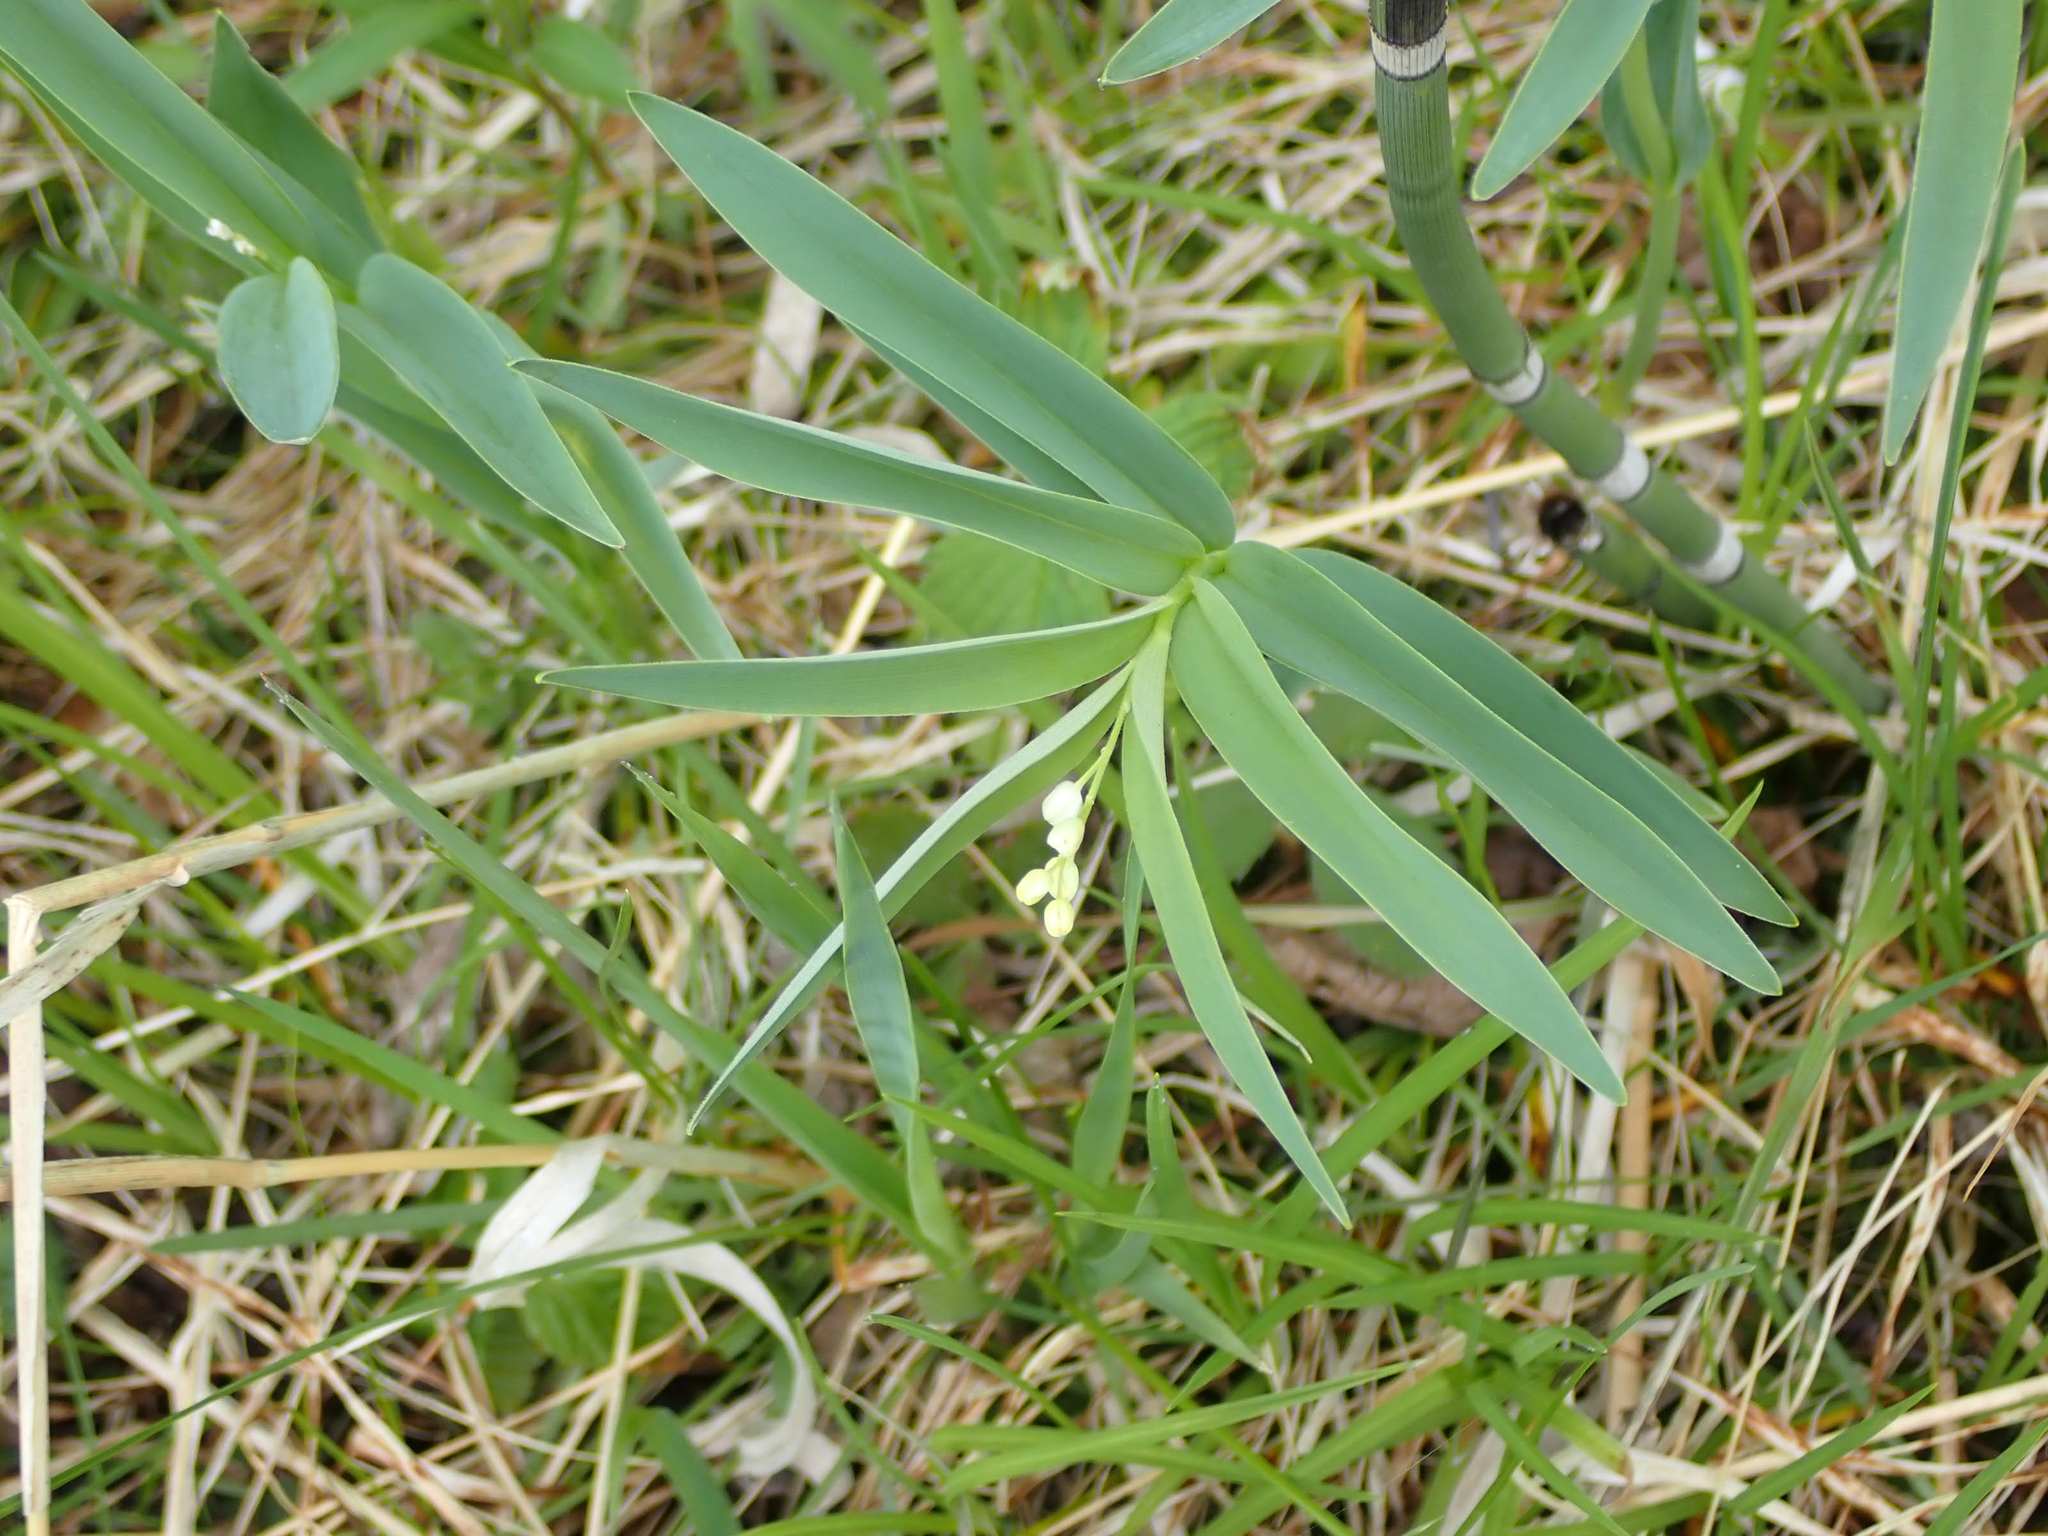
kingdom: Plantae
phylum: Tracheophyta
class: Liliopsida
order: Asparagales
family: Asparagaceae
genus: Maianthemum
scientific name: Maianthemum stellatum
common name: Little false solomon's seal
